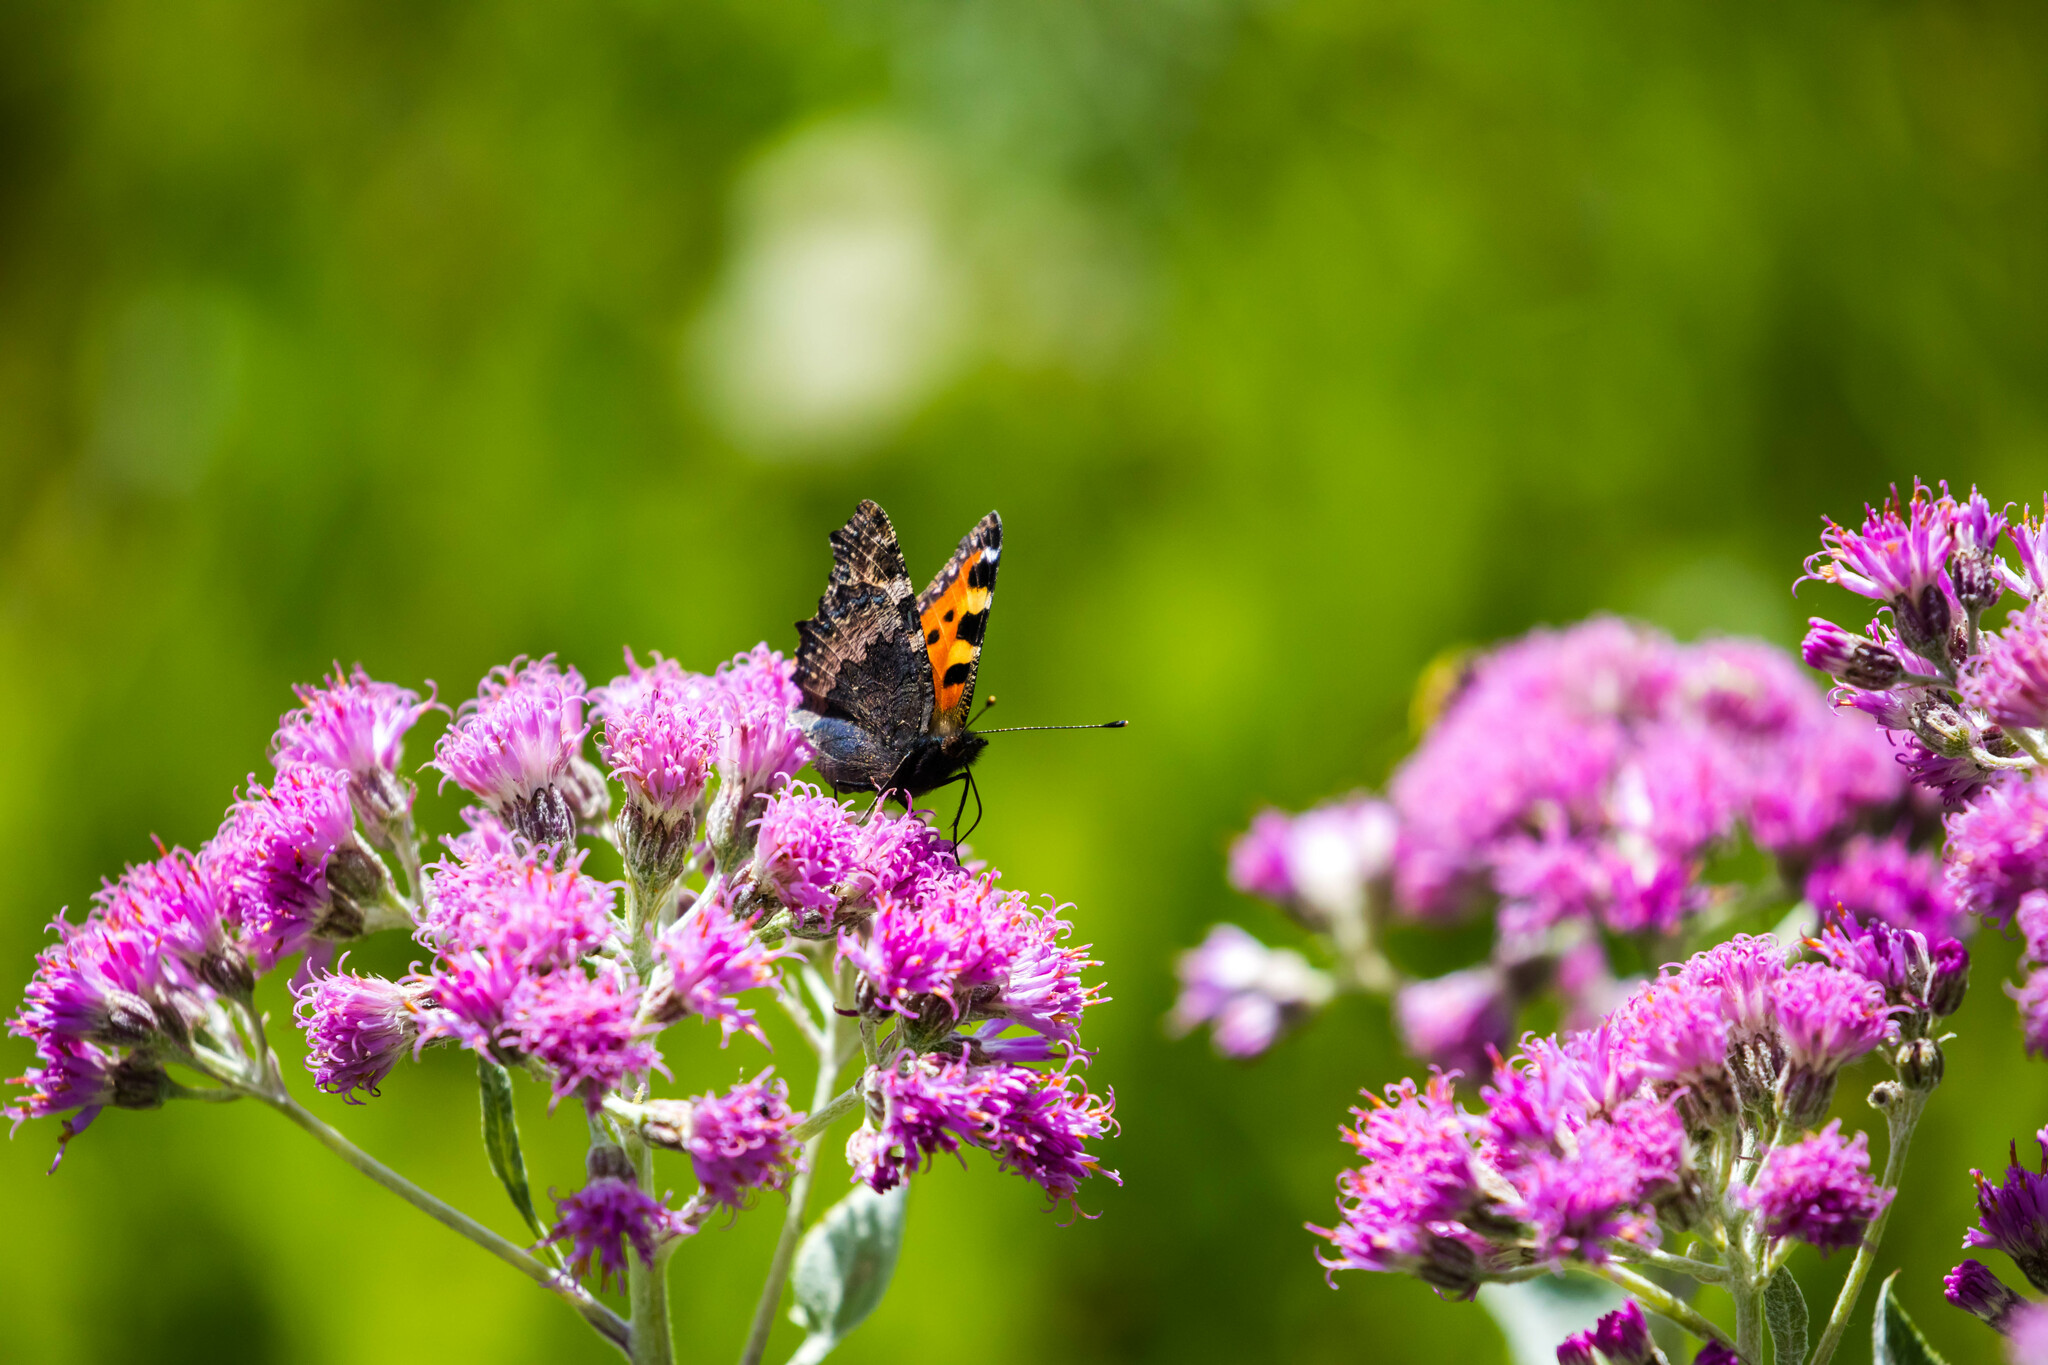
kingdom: Animalia
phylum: Arthropoda
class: Insecta
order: Lepidoptera
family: Nymphalidae
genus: Aglais
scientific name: Aglais urticae
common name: Small tortoiseshell
